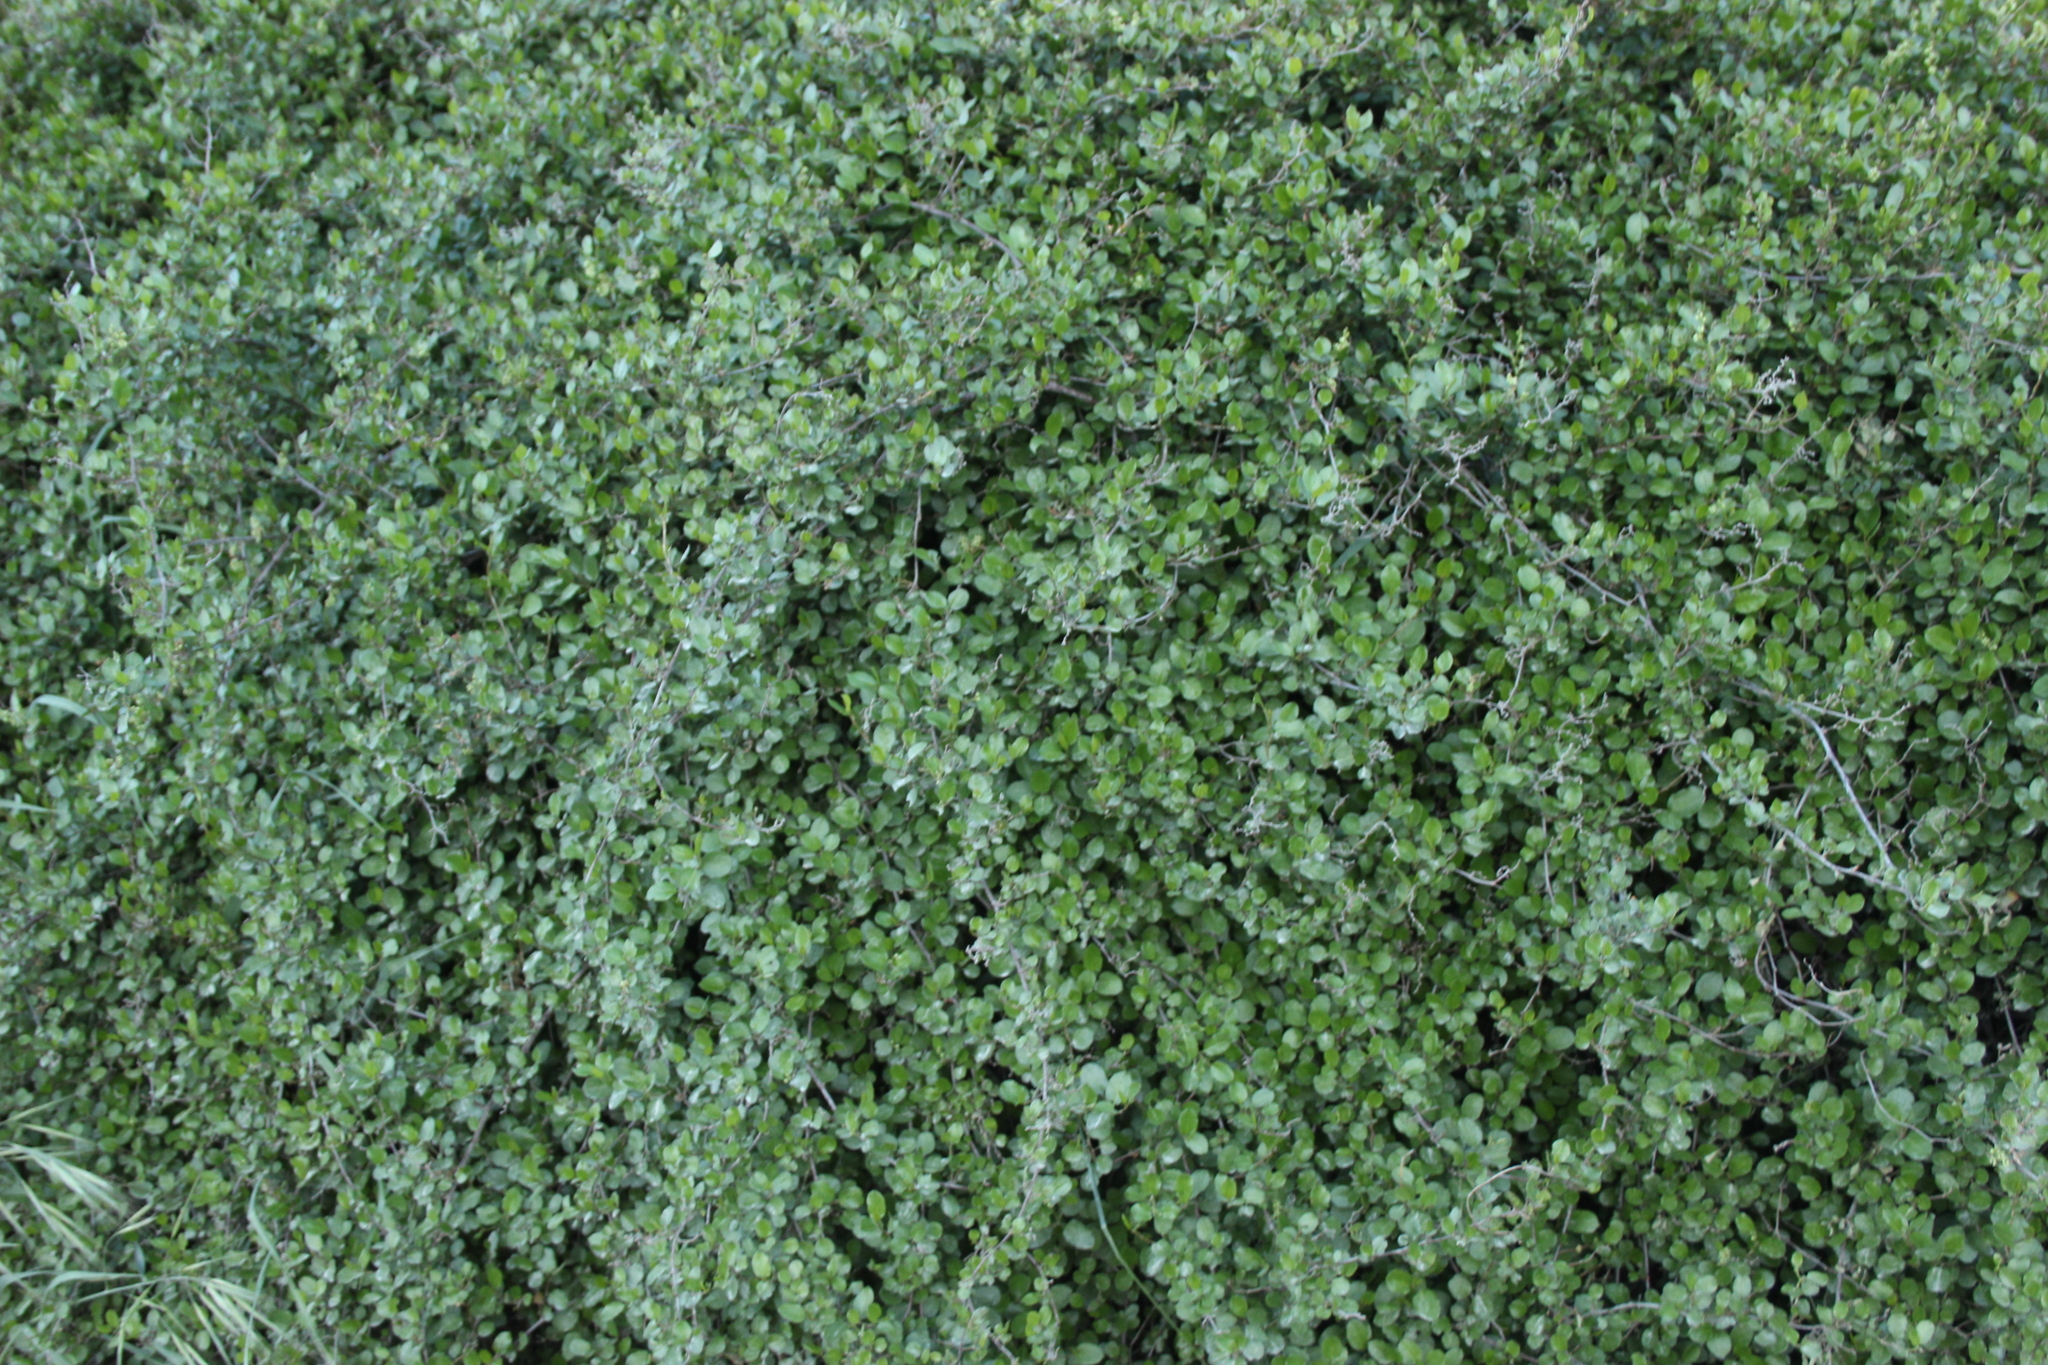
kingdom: Plantae
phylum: Tracheophyta
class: Magnoliopsida
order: Caryophyllales
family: Polygonaceae
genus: Muehlenbeckia
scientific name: Muehlenbeckia complexa
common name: Wireplant
